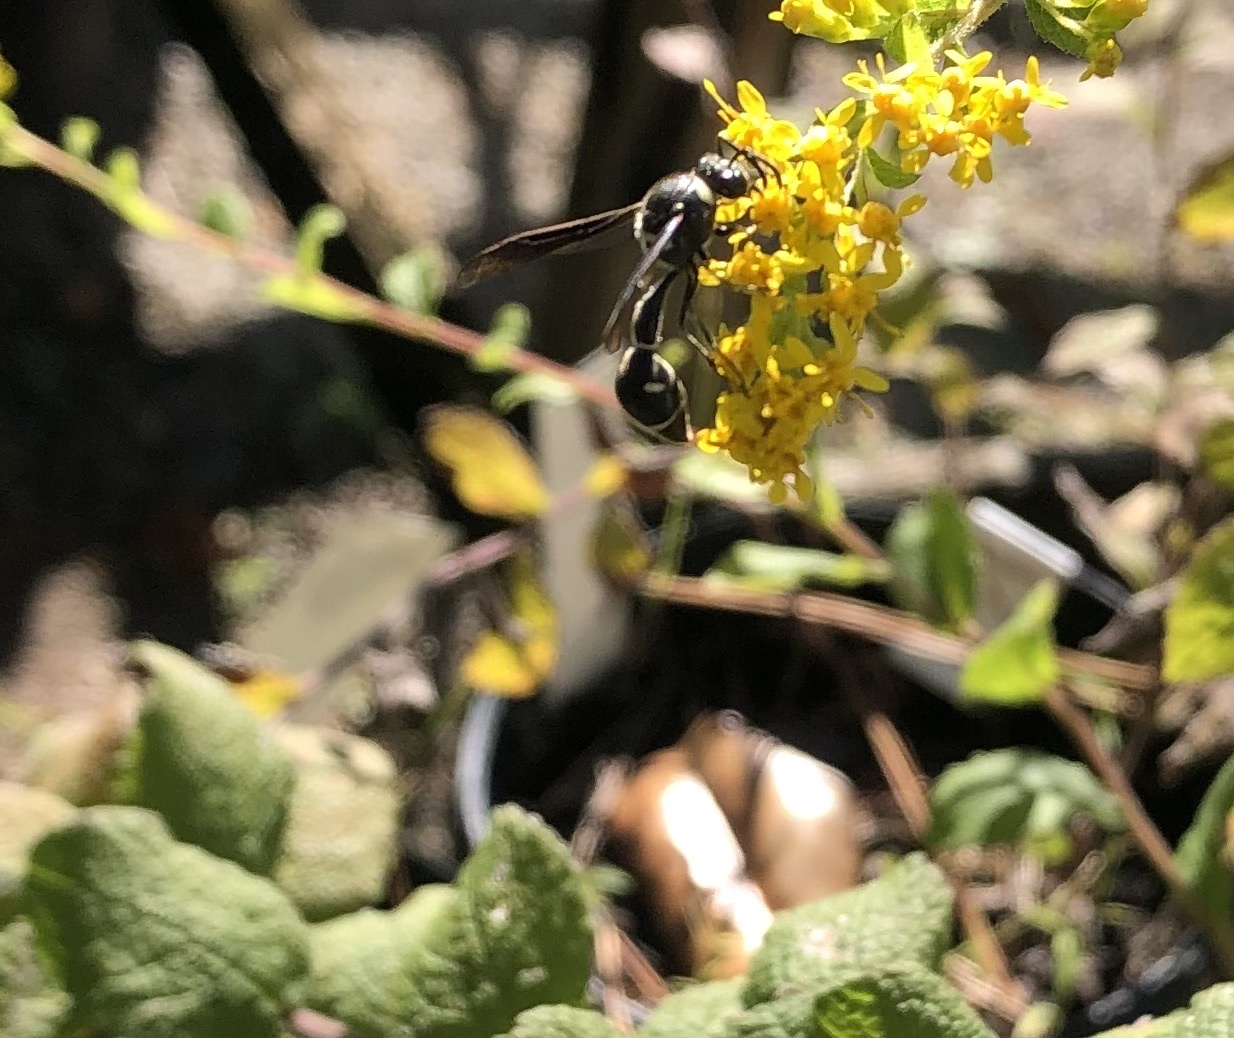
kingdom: Animalia
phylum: Arthropoda
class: Insecta
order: Hymenoptera
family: Vespidae
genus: Eumenes
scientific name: Eumenes fraternus
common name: Fraternal potter wasp
